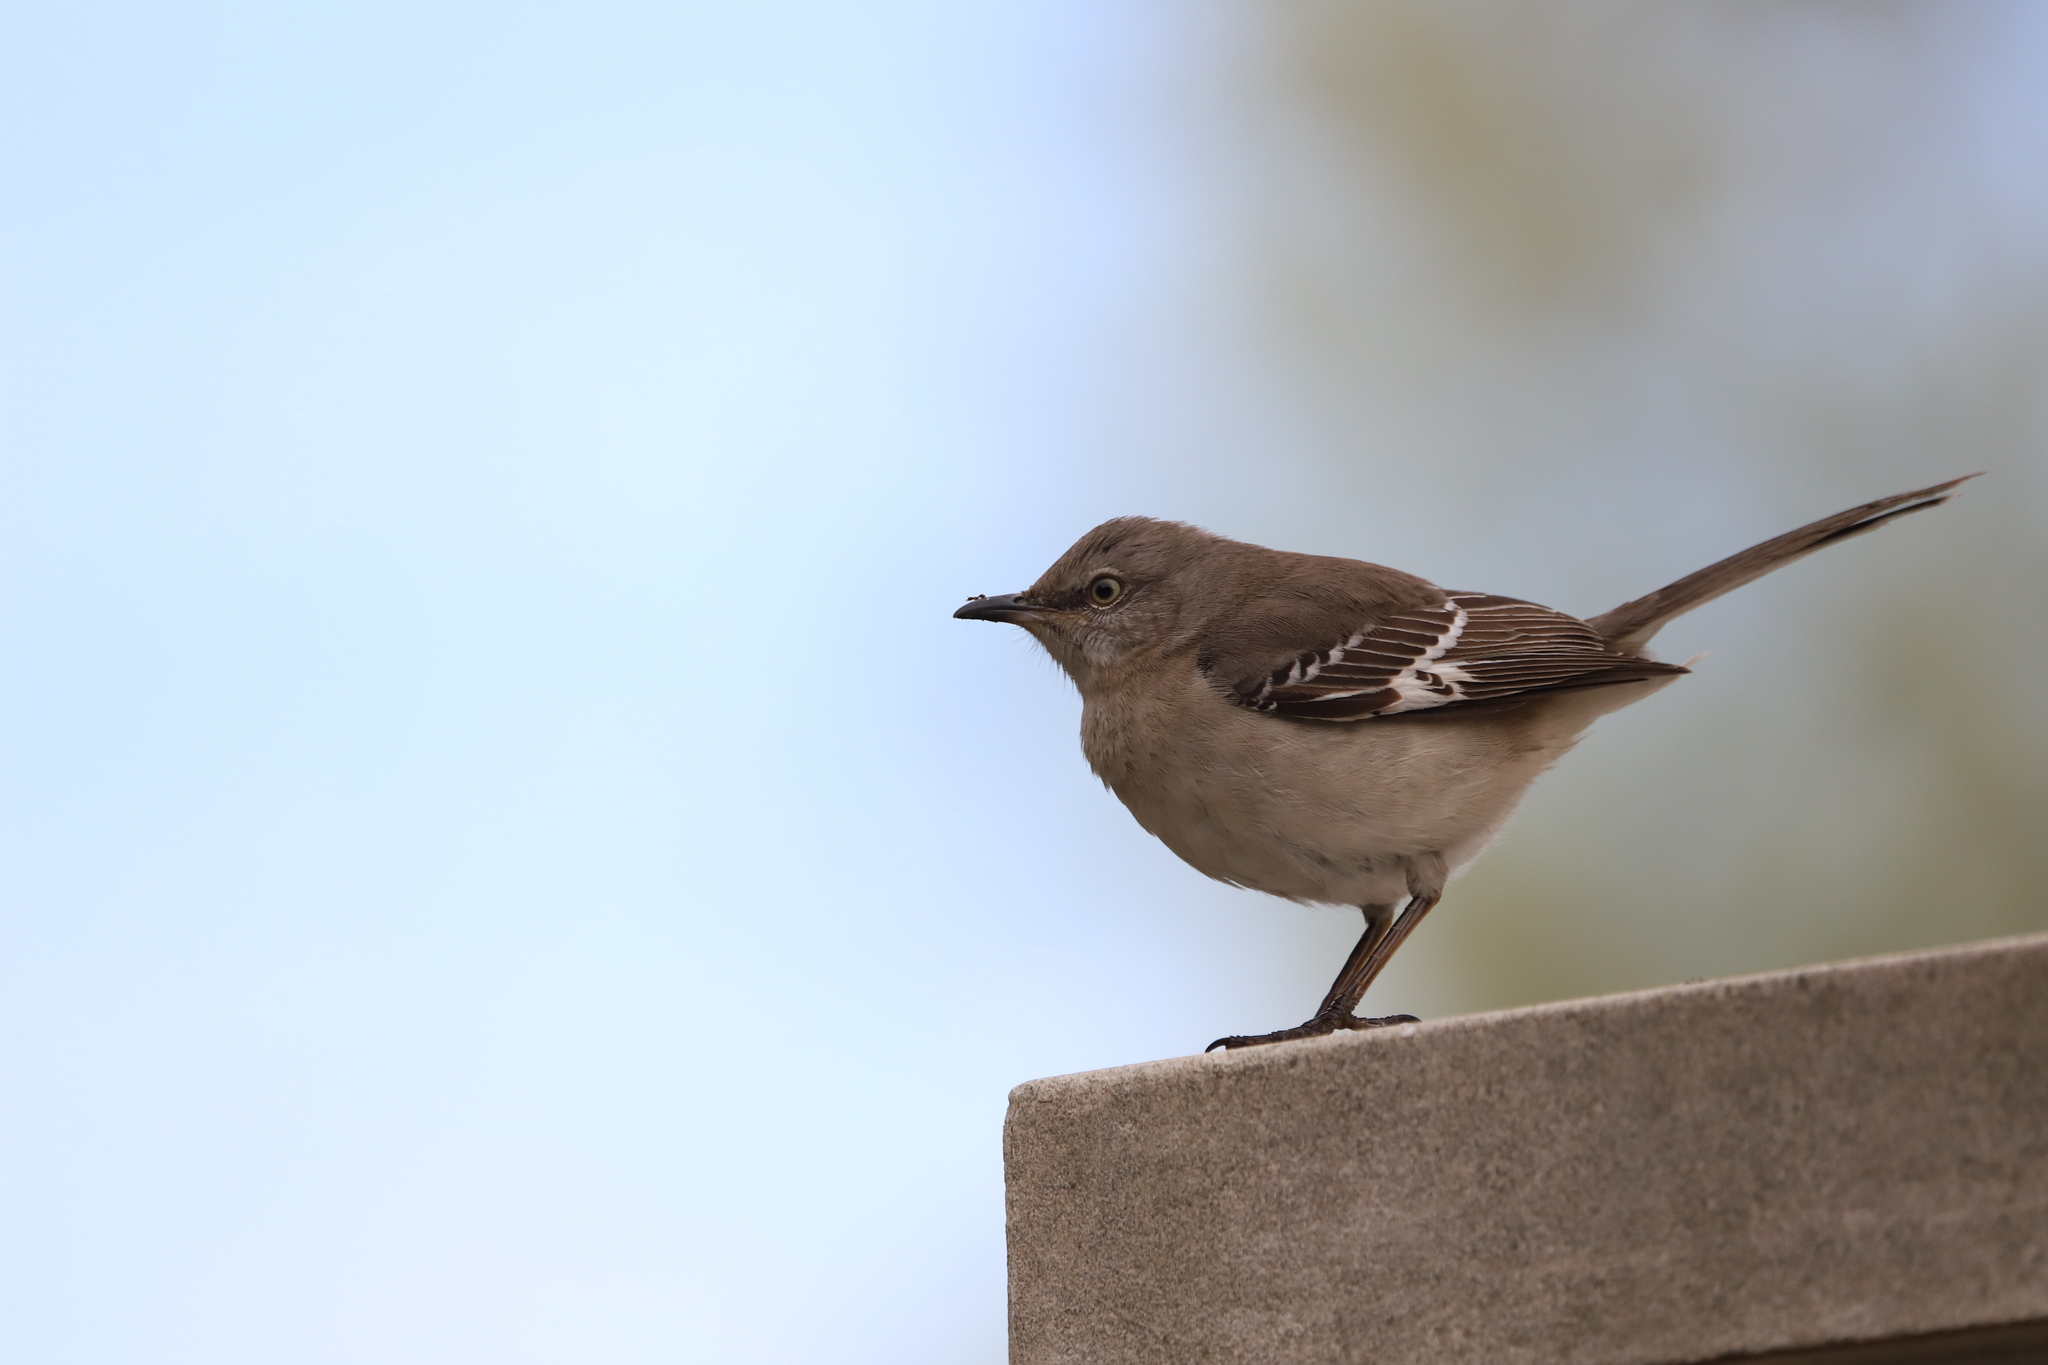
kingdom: Animalia
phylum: Chordata
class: Aves
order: Passeriformes
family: Mimidae
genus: Mimus
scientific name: Mimus polyglottos
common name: Northern mockingbird
